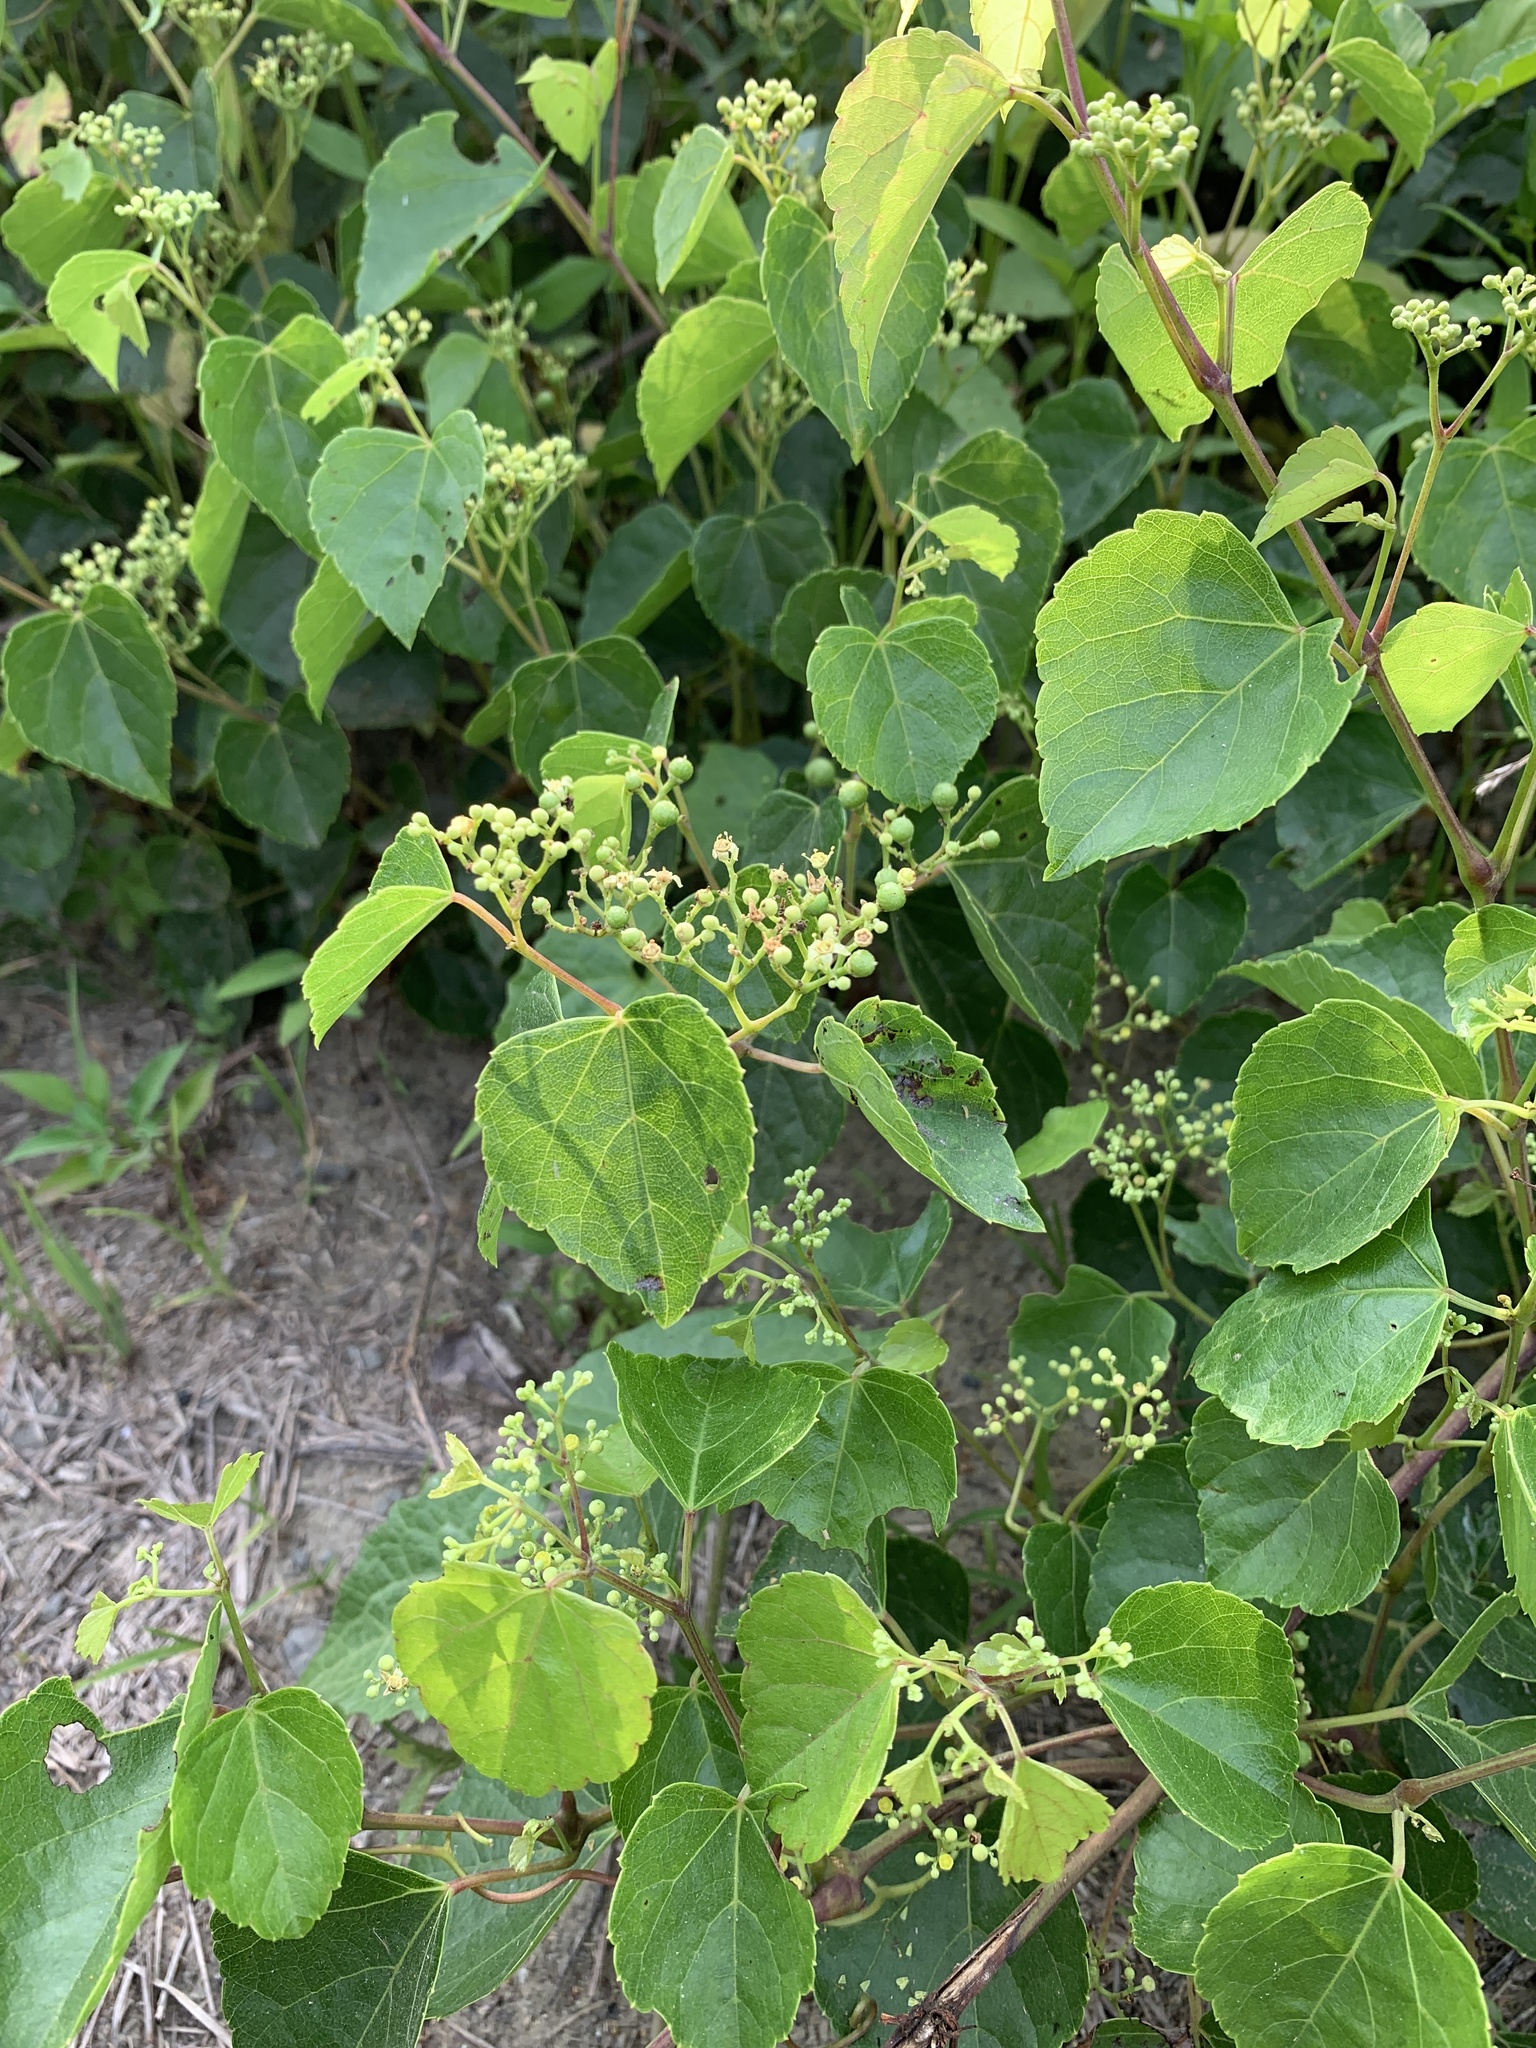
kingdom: Plantae
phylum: Tracheophyta
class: Magnoliopsida
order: Vitales
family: Vitaceae
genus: Ampelopsis
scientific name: Ampelopsis glandulosa
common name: Amur peppervine
